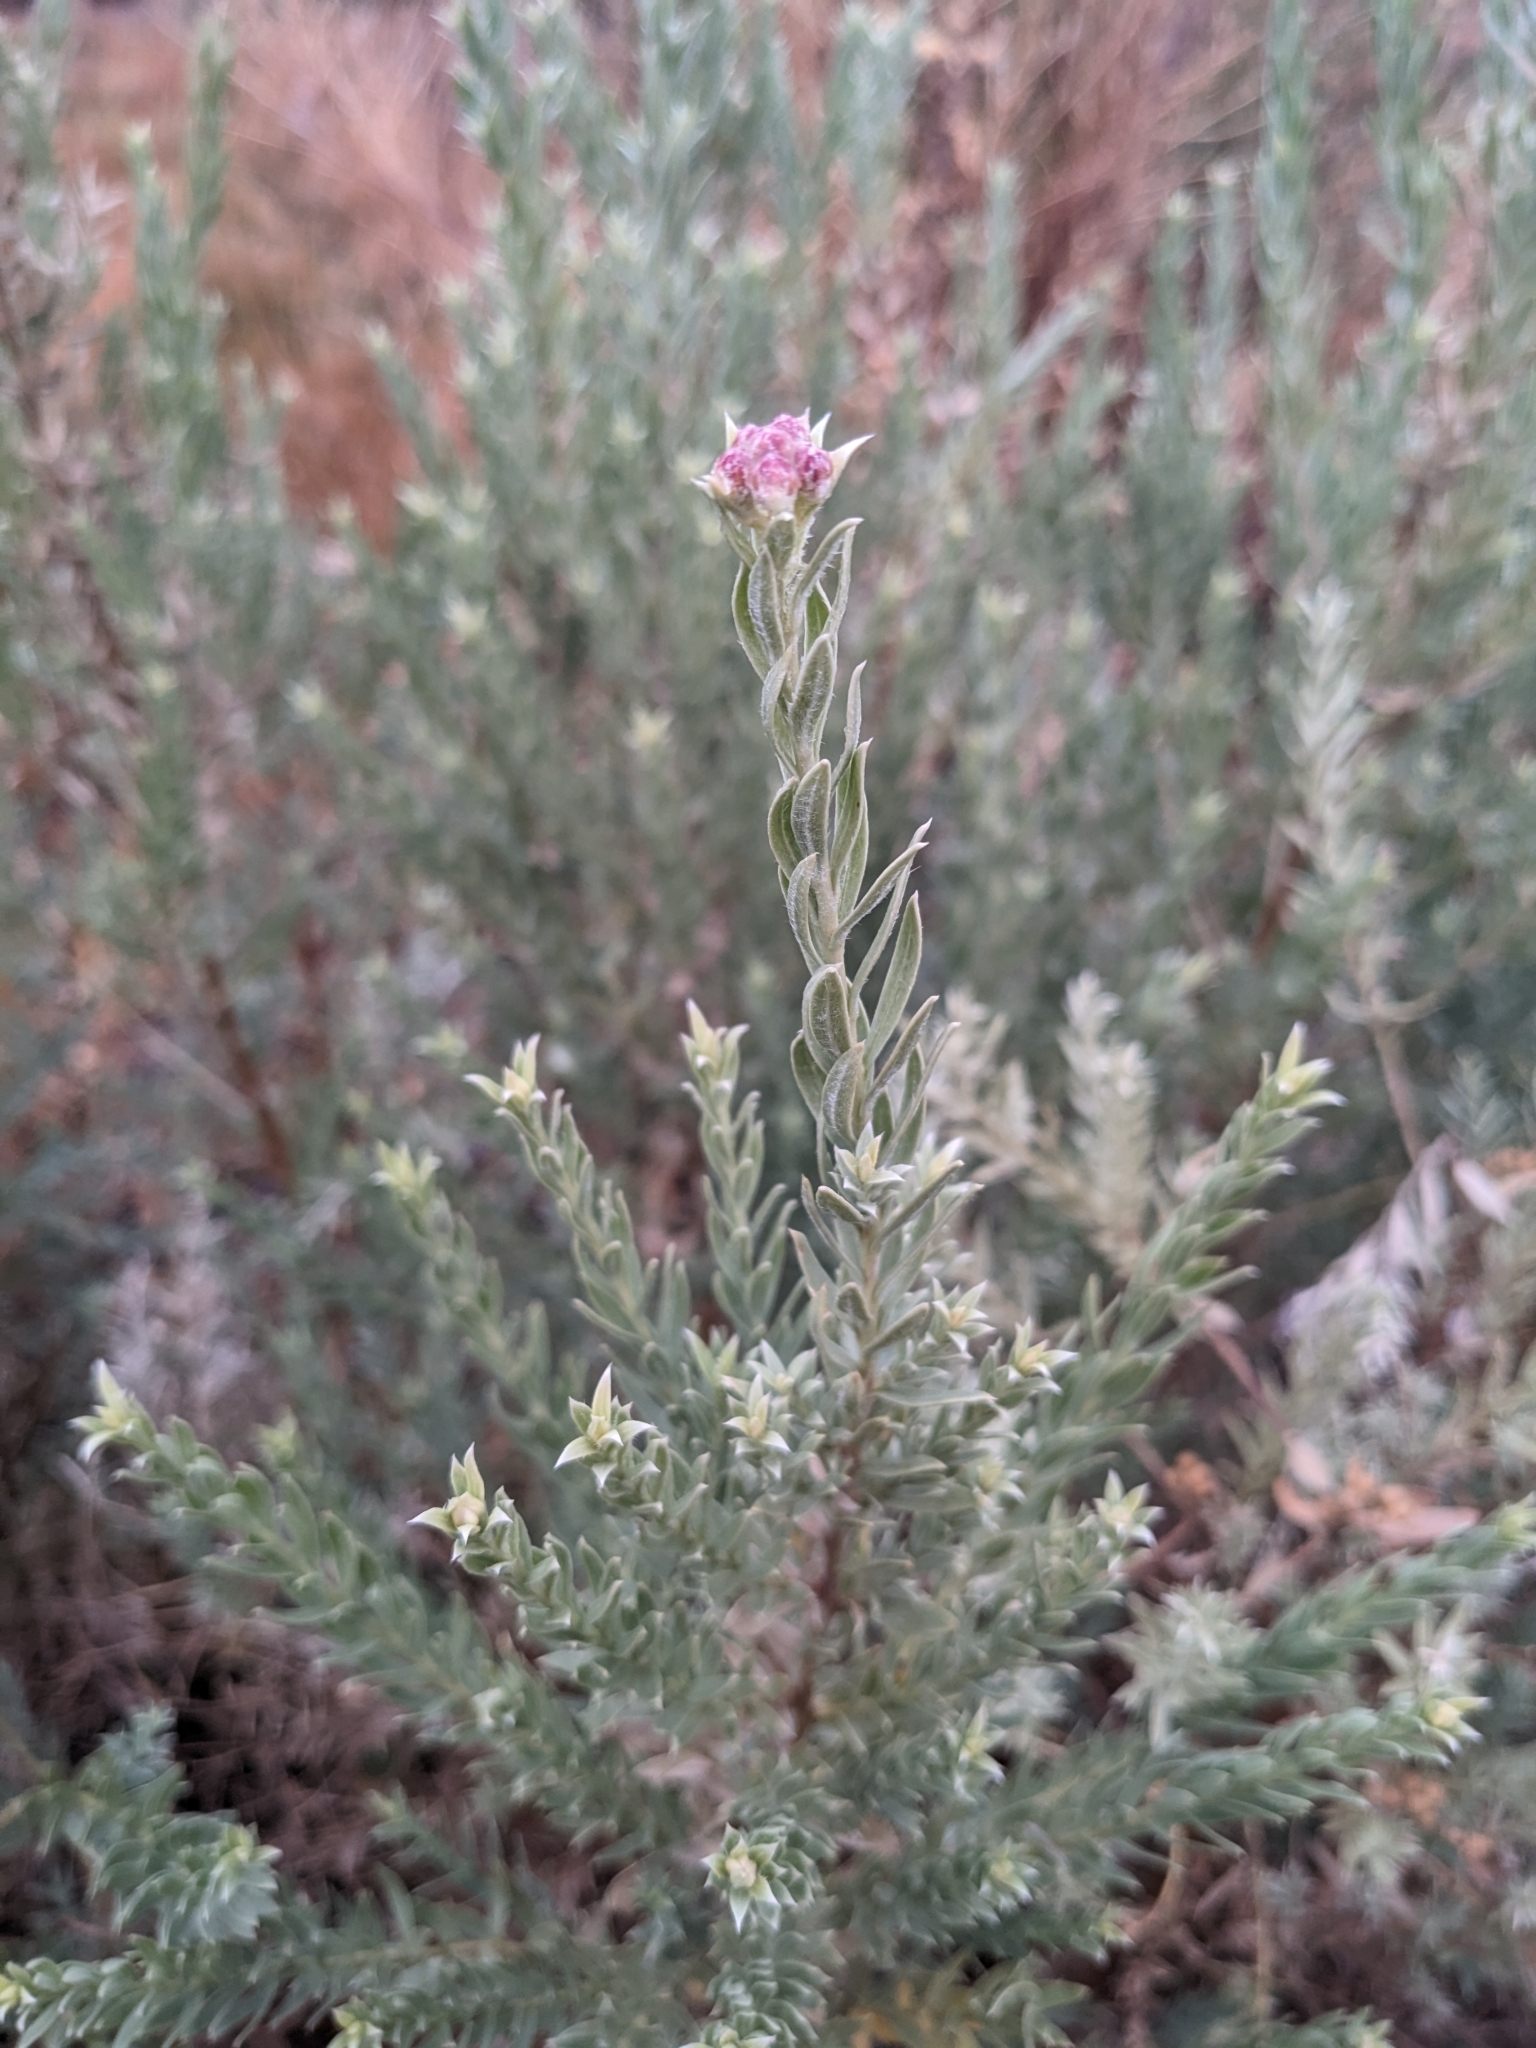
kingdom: Plantae
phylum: Tracheophyta
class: Magnoliopsida
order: Asterales
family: Asteraceae
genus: Pluchea
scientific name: Pluchea sericea
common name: Arrow-weed
